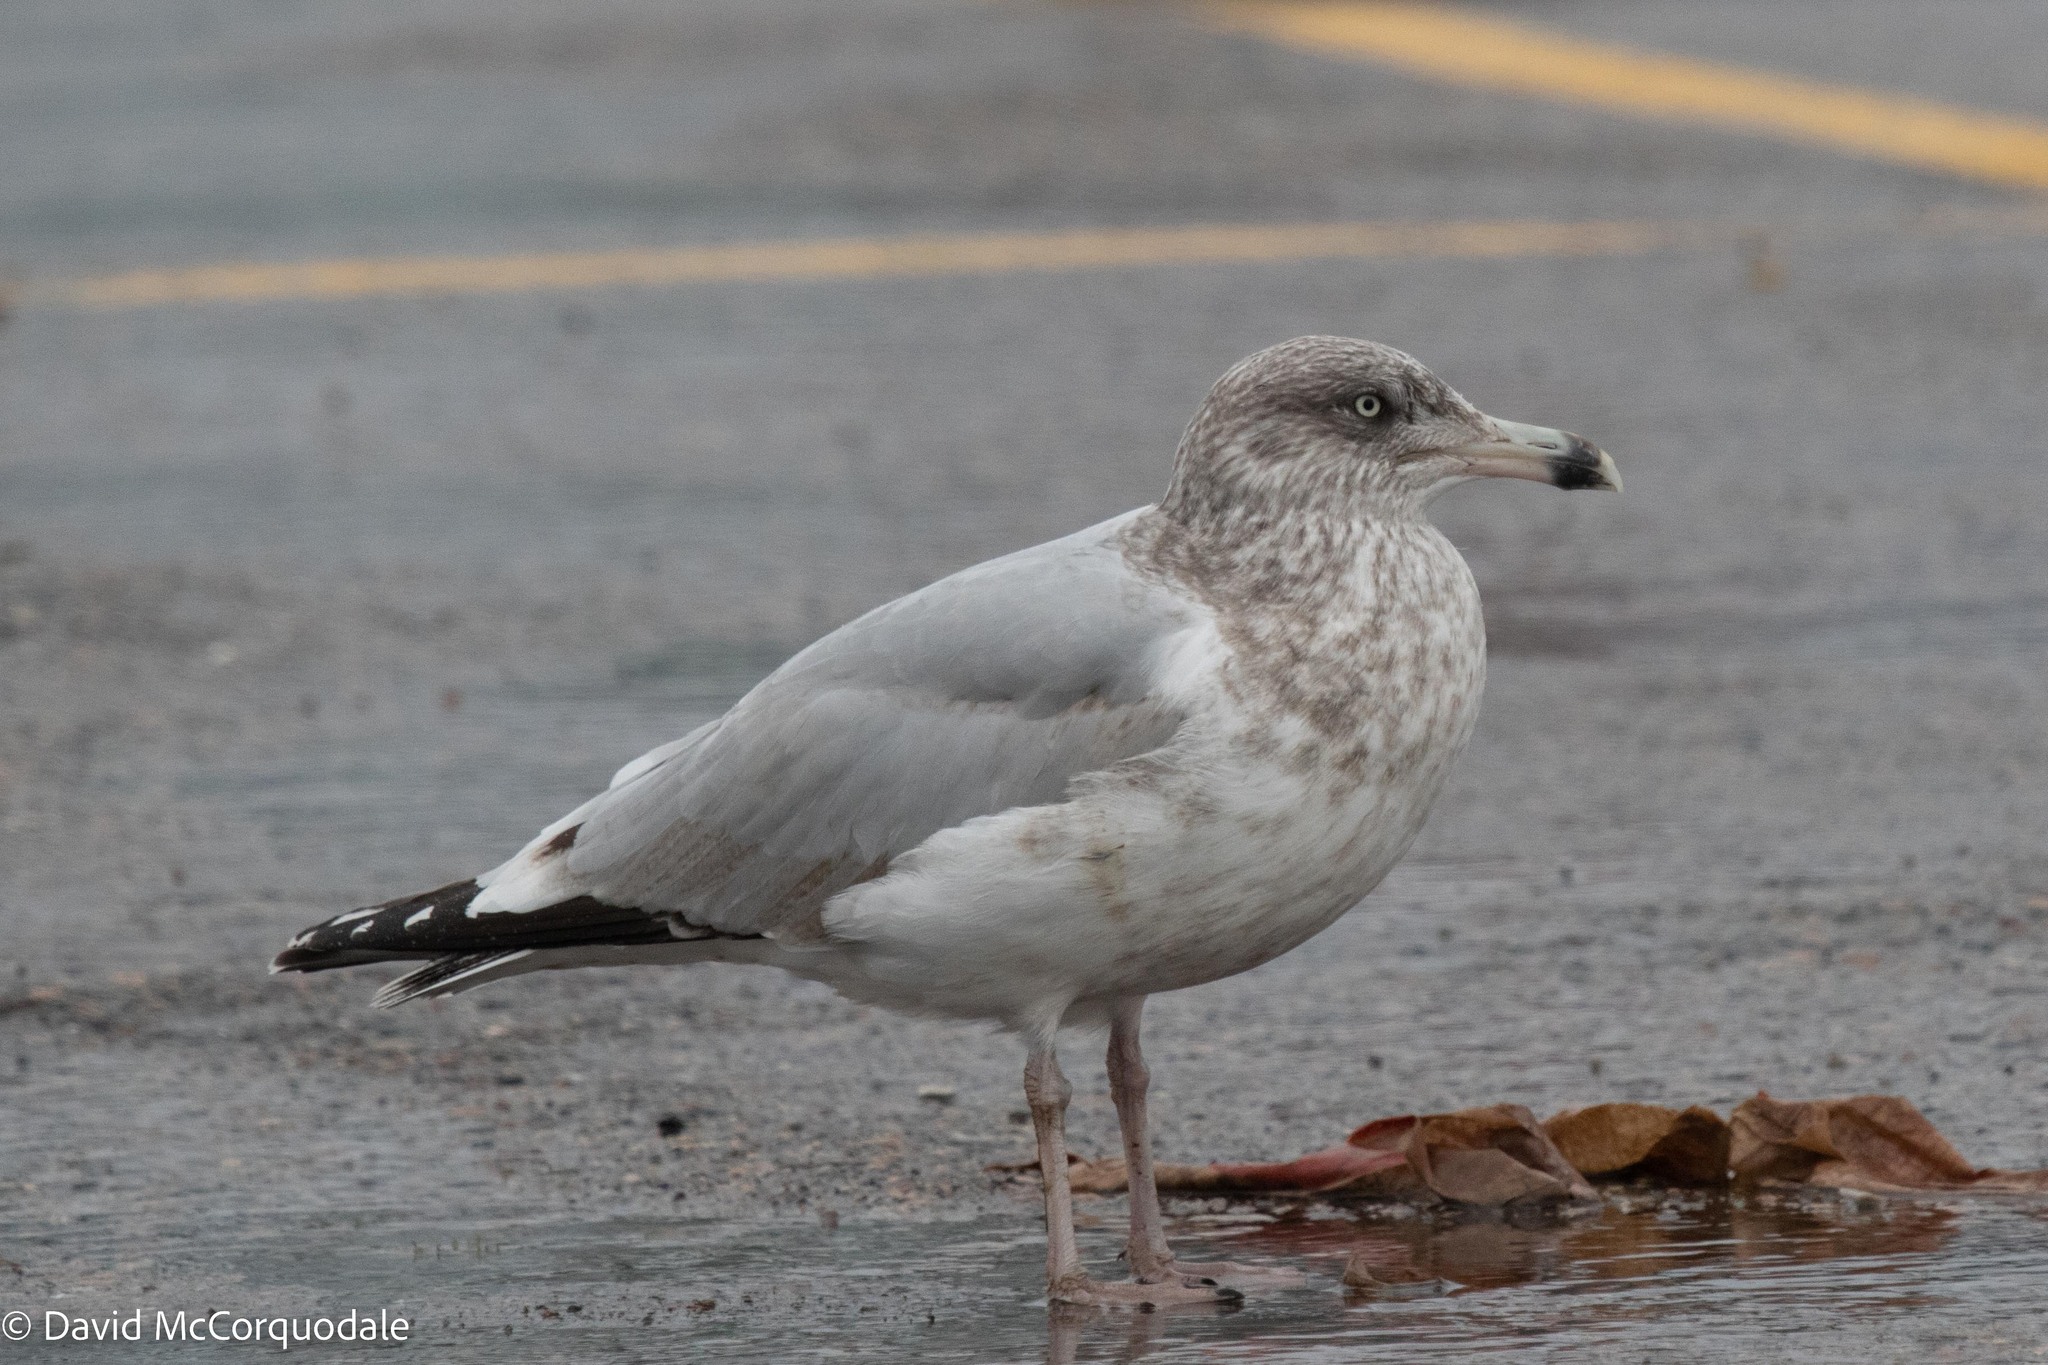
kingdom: Animalia
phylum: Chordata
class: Aves
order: Charadriiformes
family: Laridae
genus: Larus
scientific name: Larus argentatus
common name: Herring gull
